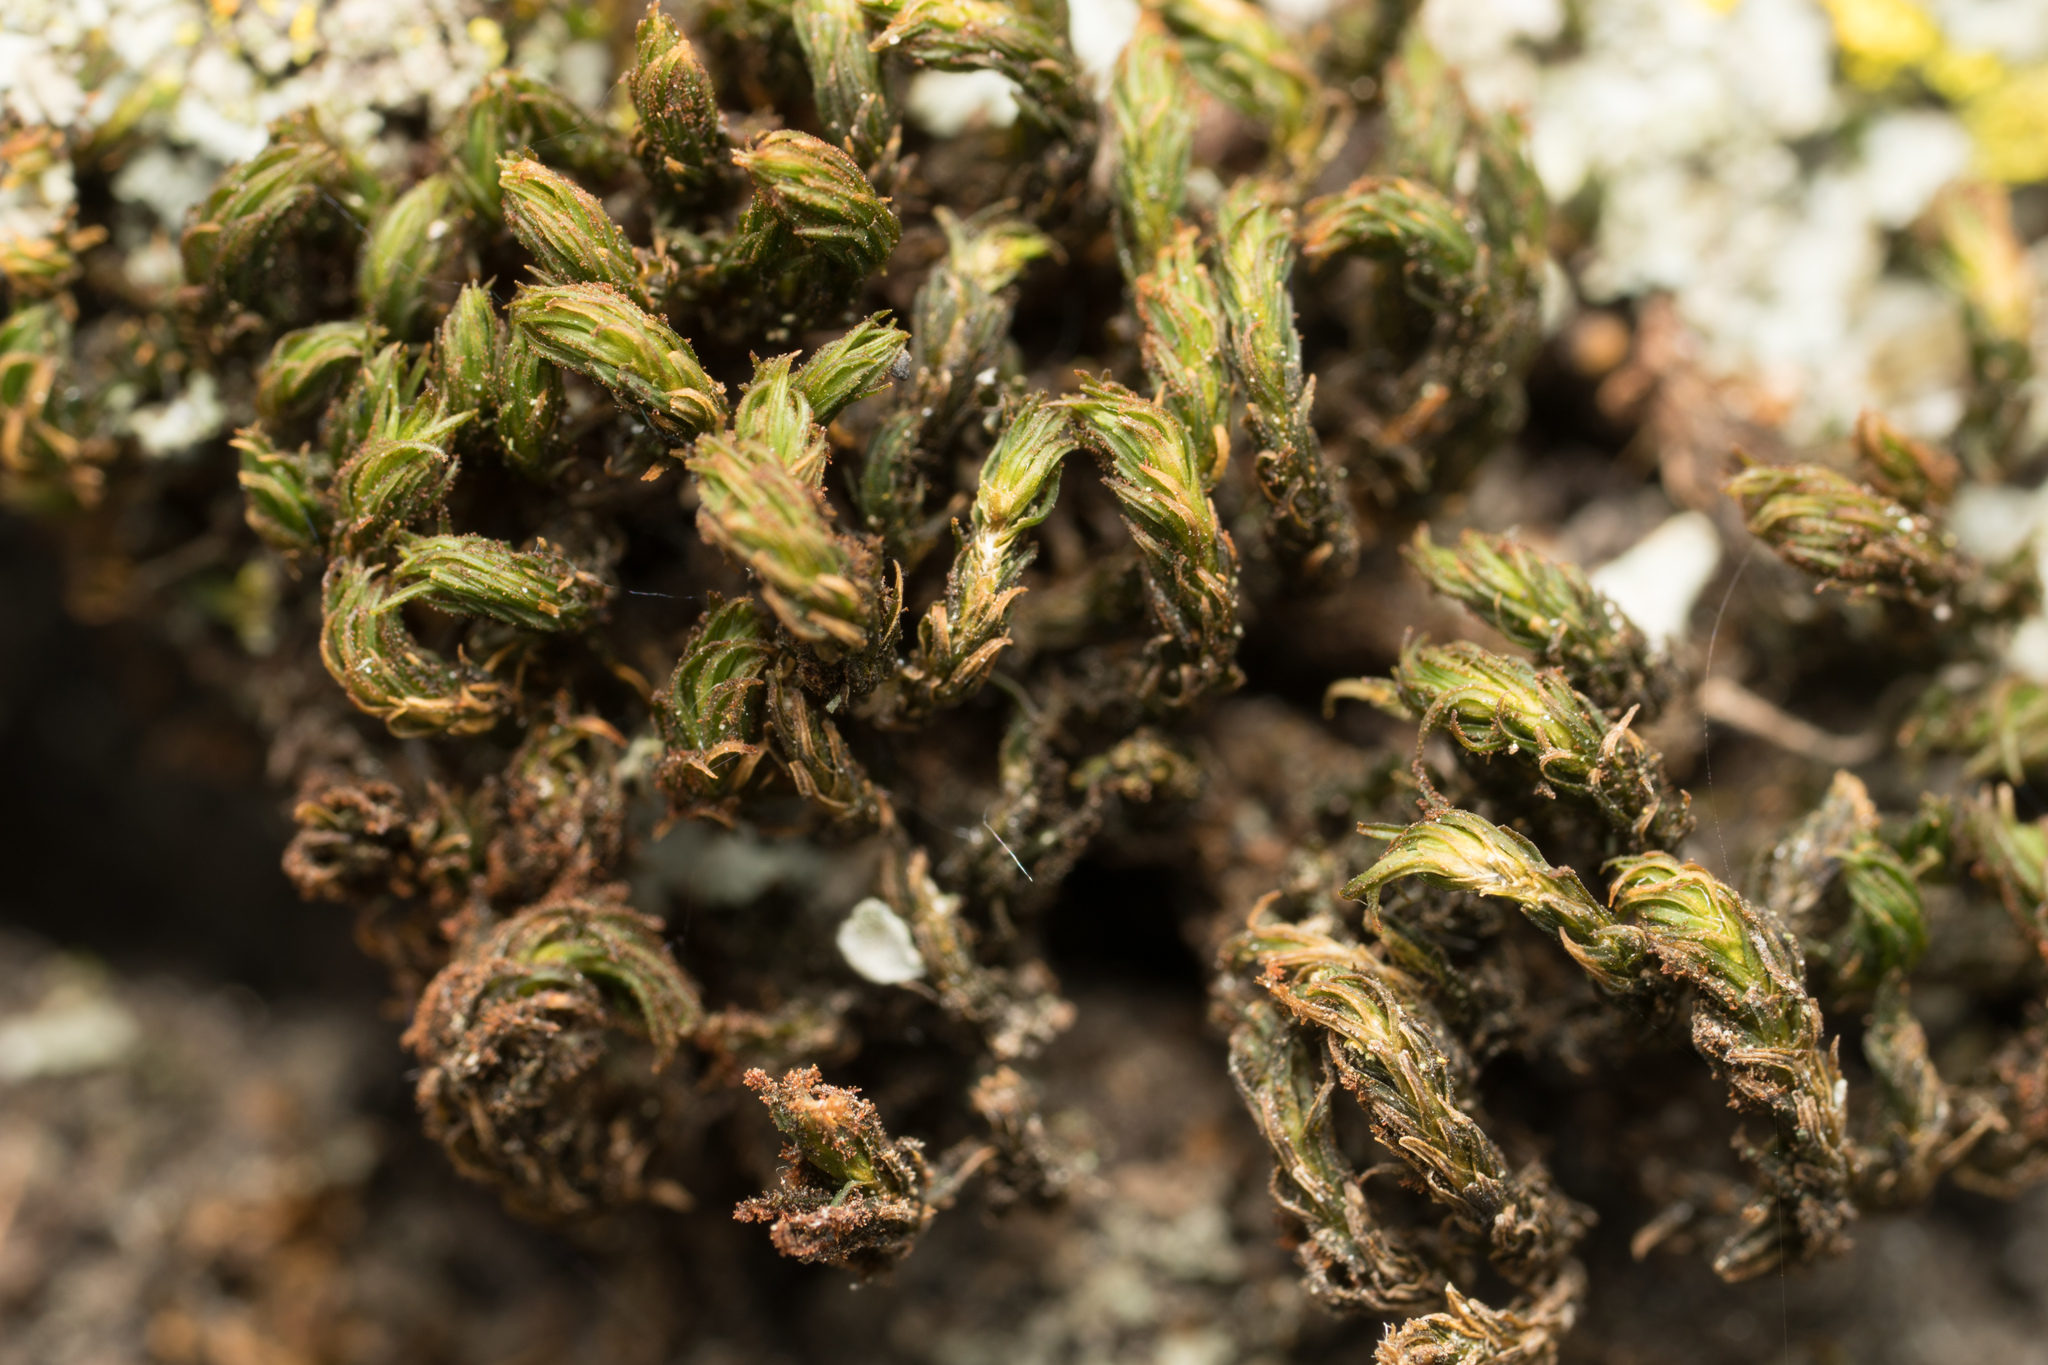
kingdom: Plantae
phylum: Bryophyta
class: Bryopsida
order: Orthotrichales
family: Orthotrichaceae
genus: Pulvigera
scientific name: Pulvigera lyellii
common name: Lyell's bristle-moss
